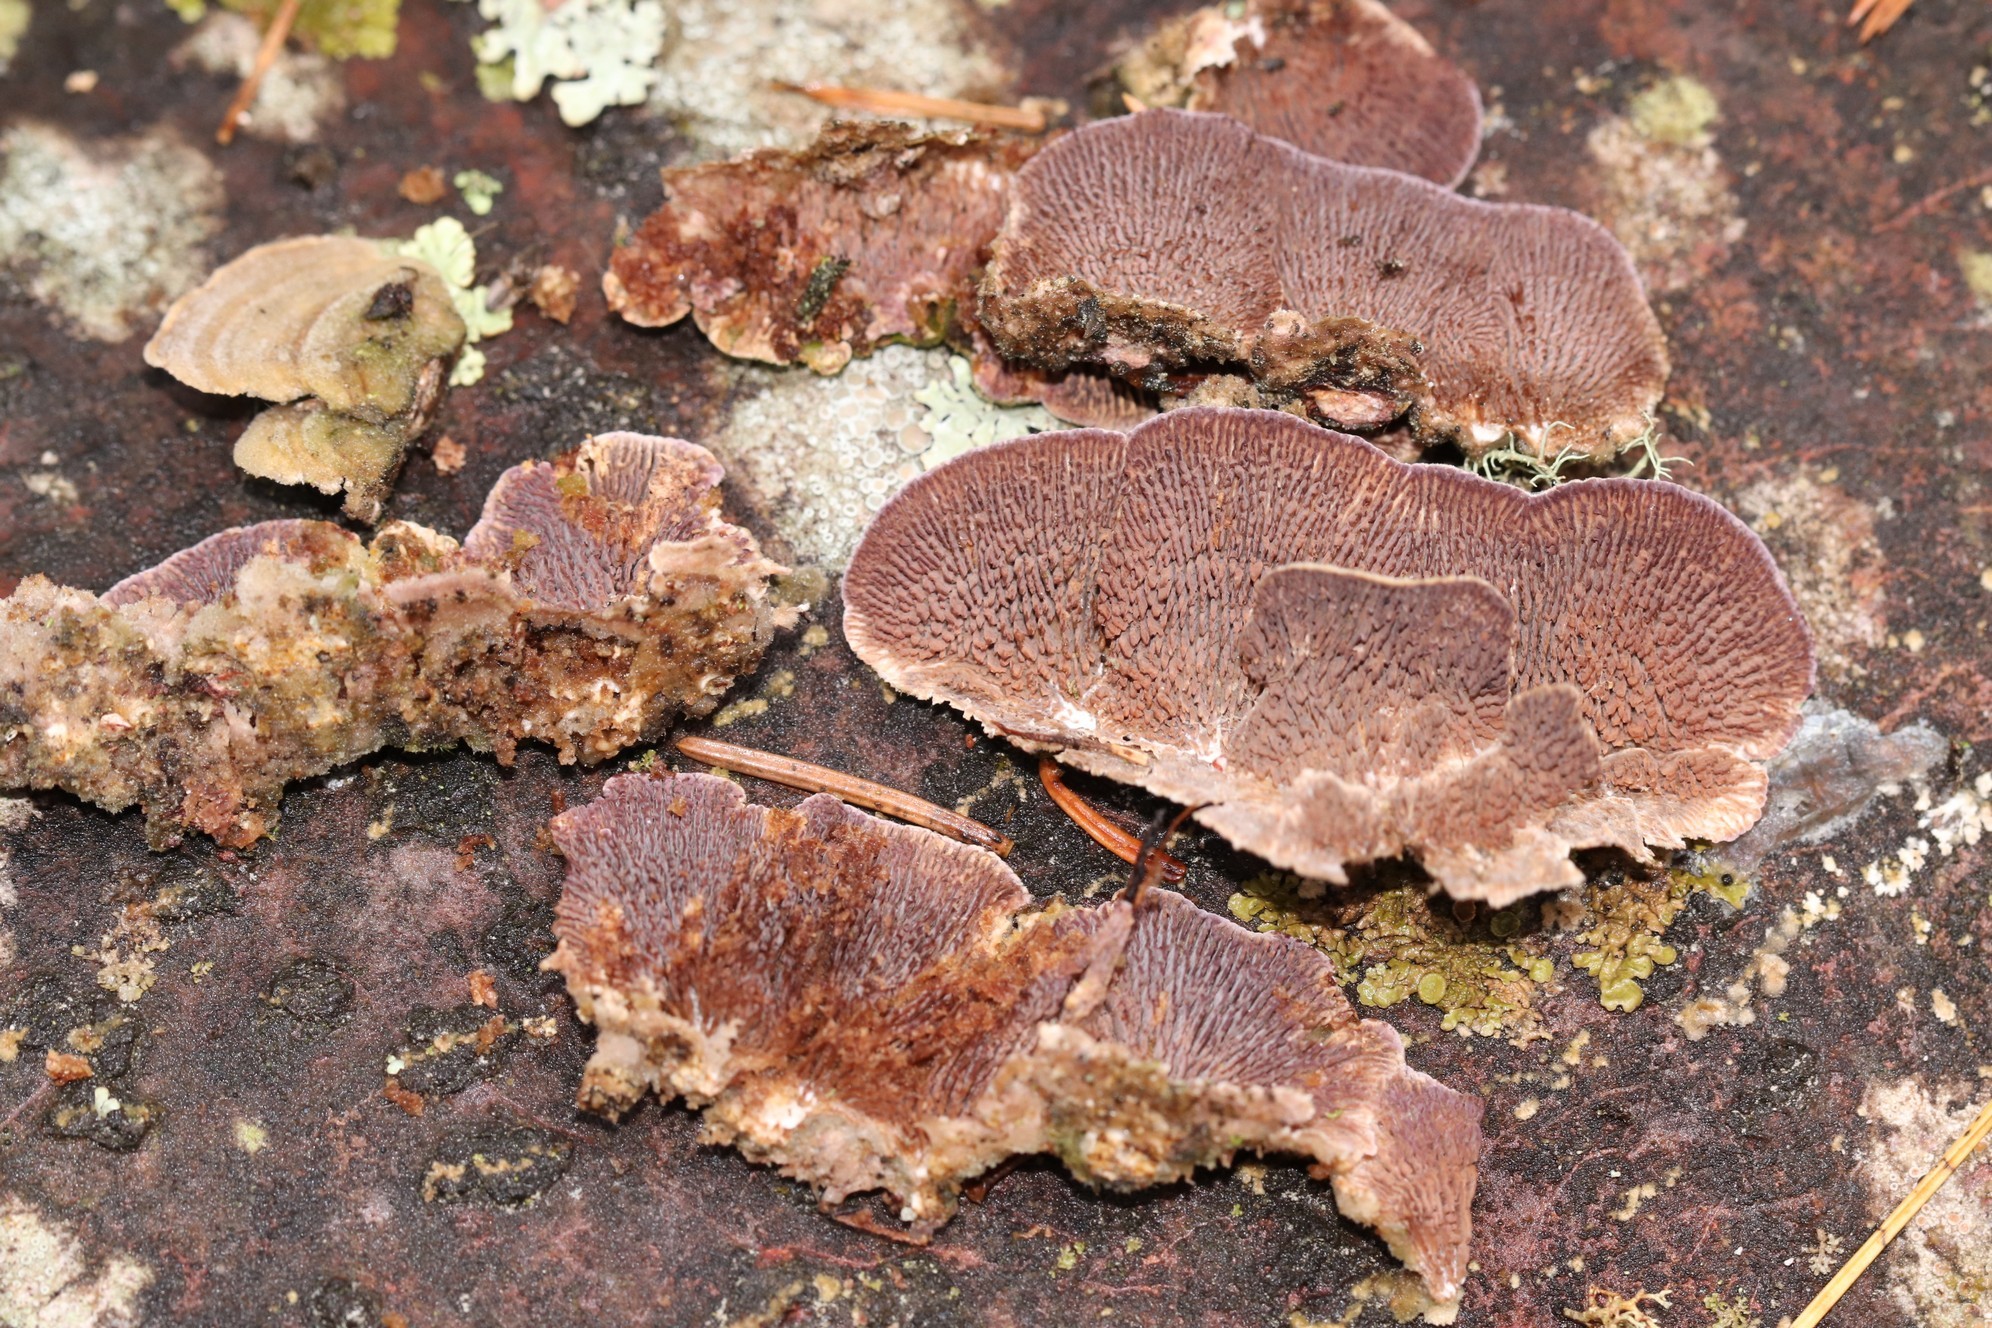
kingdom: Fungi
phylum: Basidiomycota
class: Agaricomycetes
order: Hymenochaetales
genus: Trichaptum
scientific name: Trichaptum fuscoviolaceum
